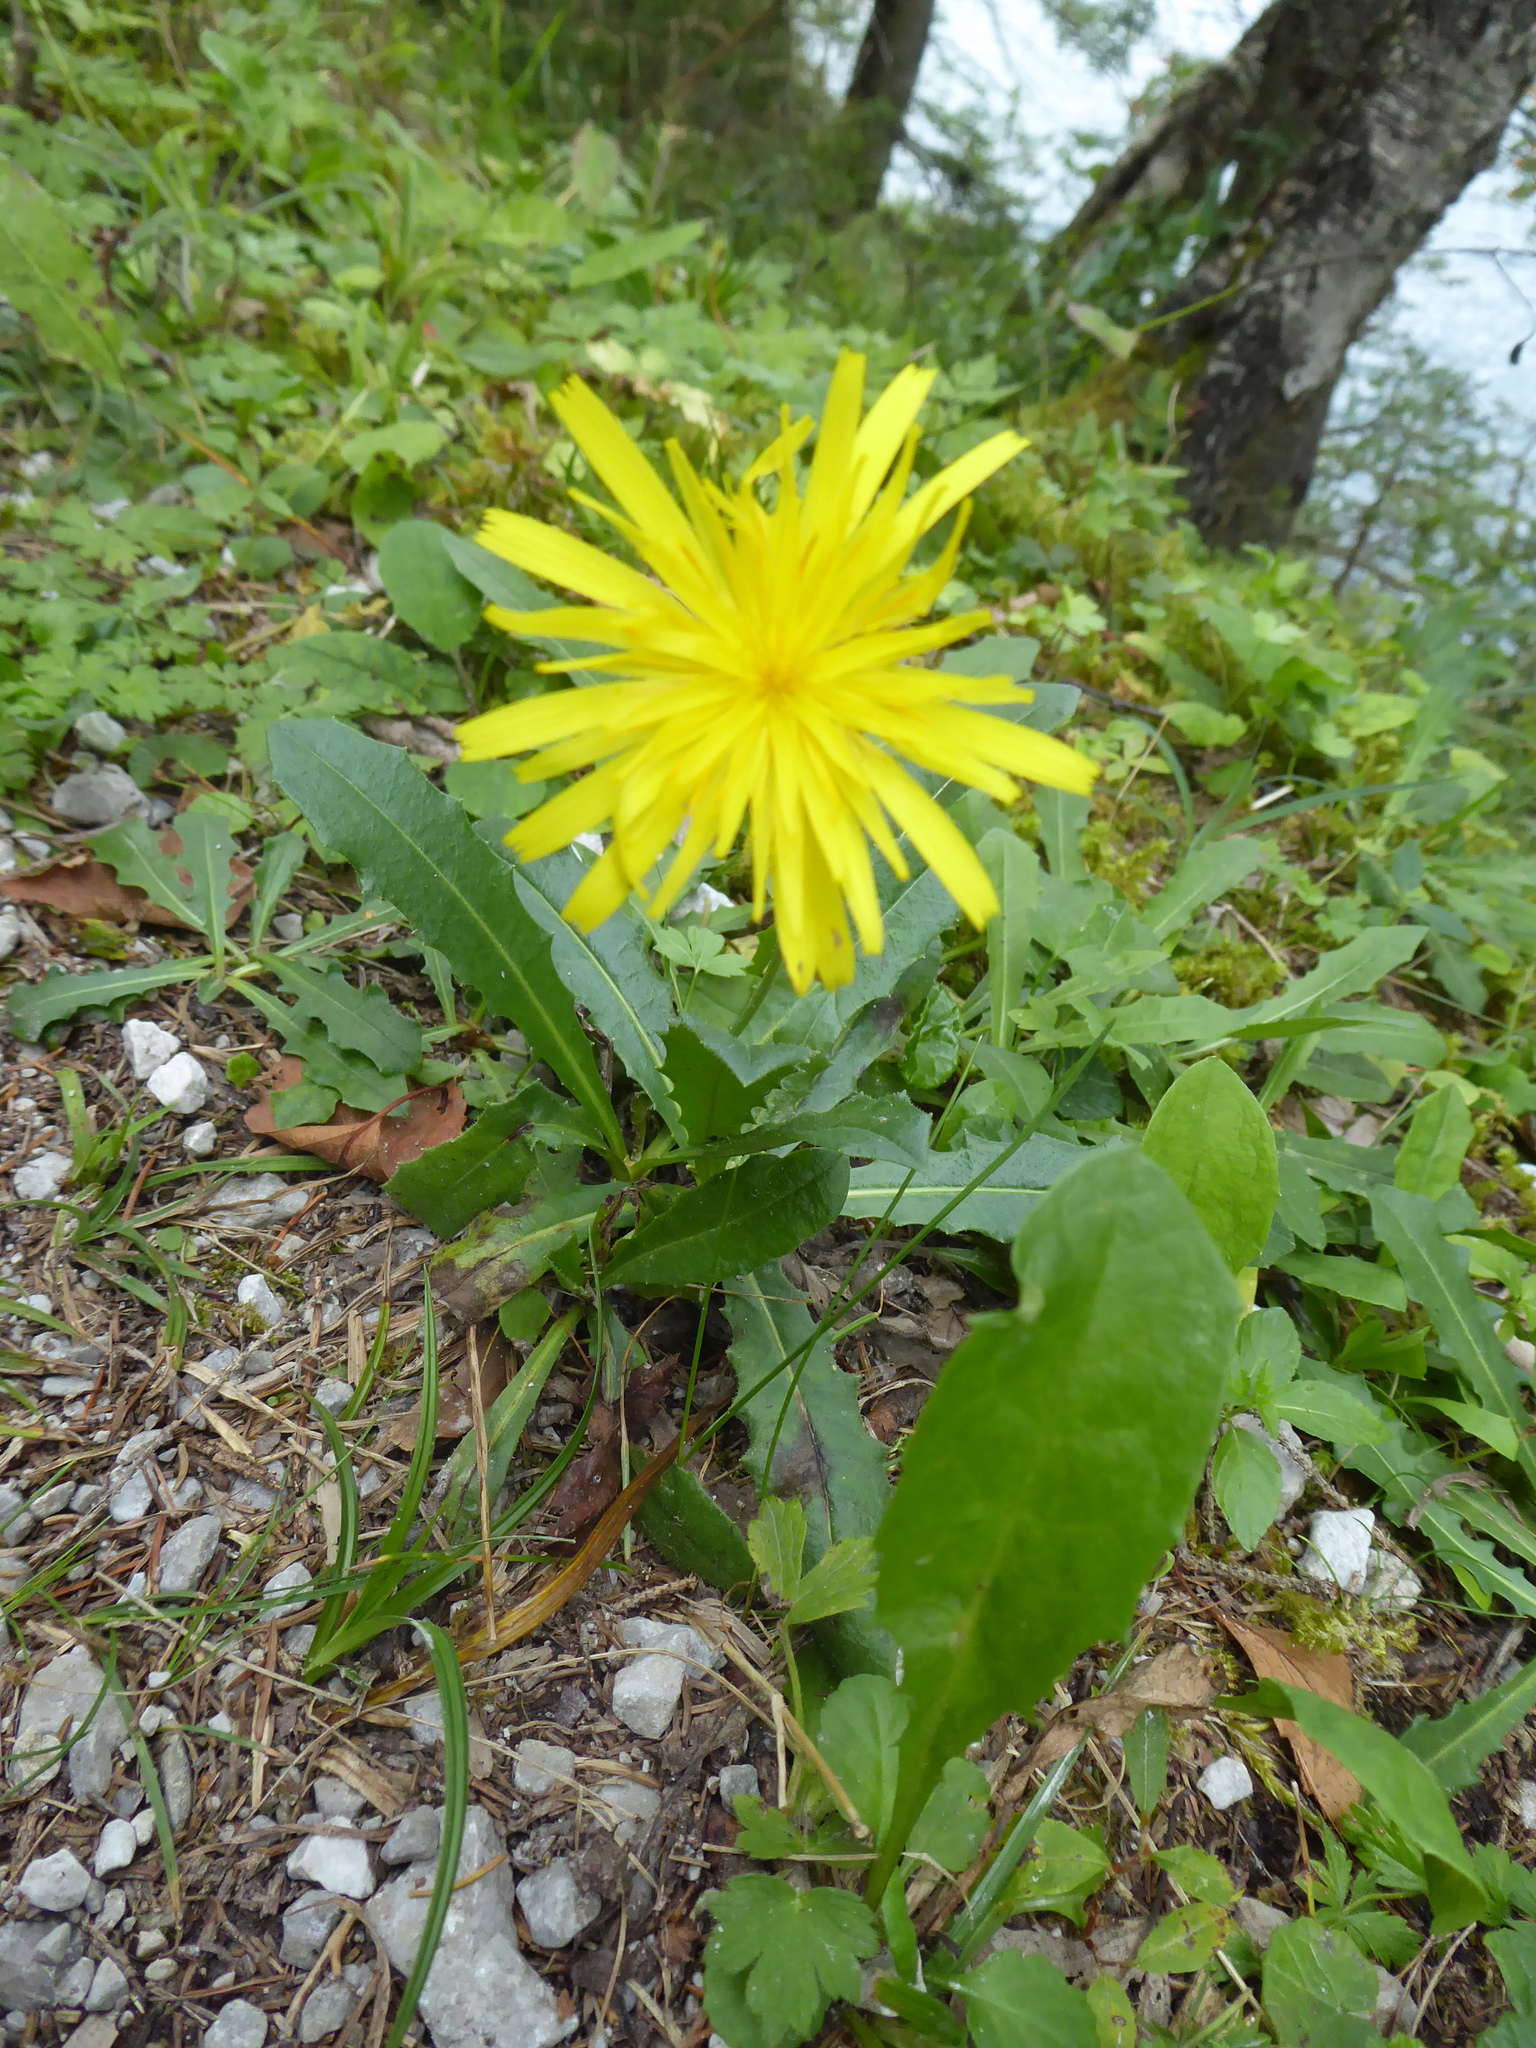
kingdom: Plantae
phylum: Tracheophyta
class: Magnoliopsida
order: Asterales
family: Asteraceae
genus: Leontodon
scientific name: Leontodon hispidus
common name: Rough hawkbit
